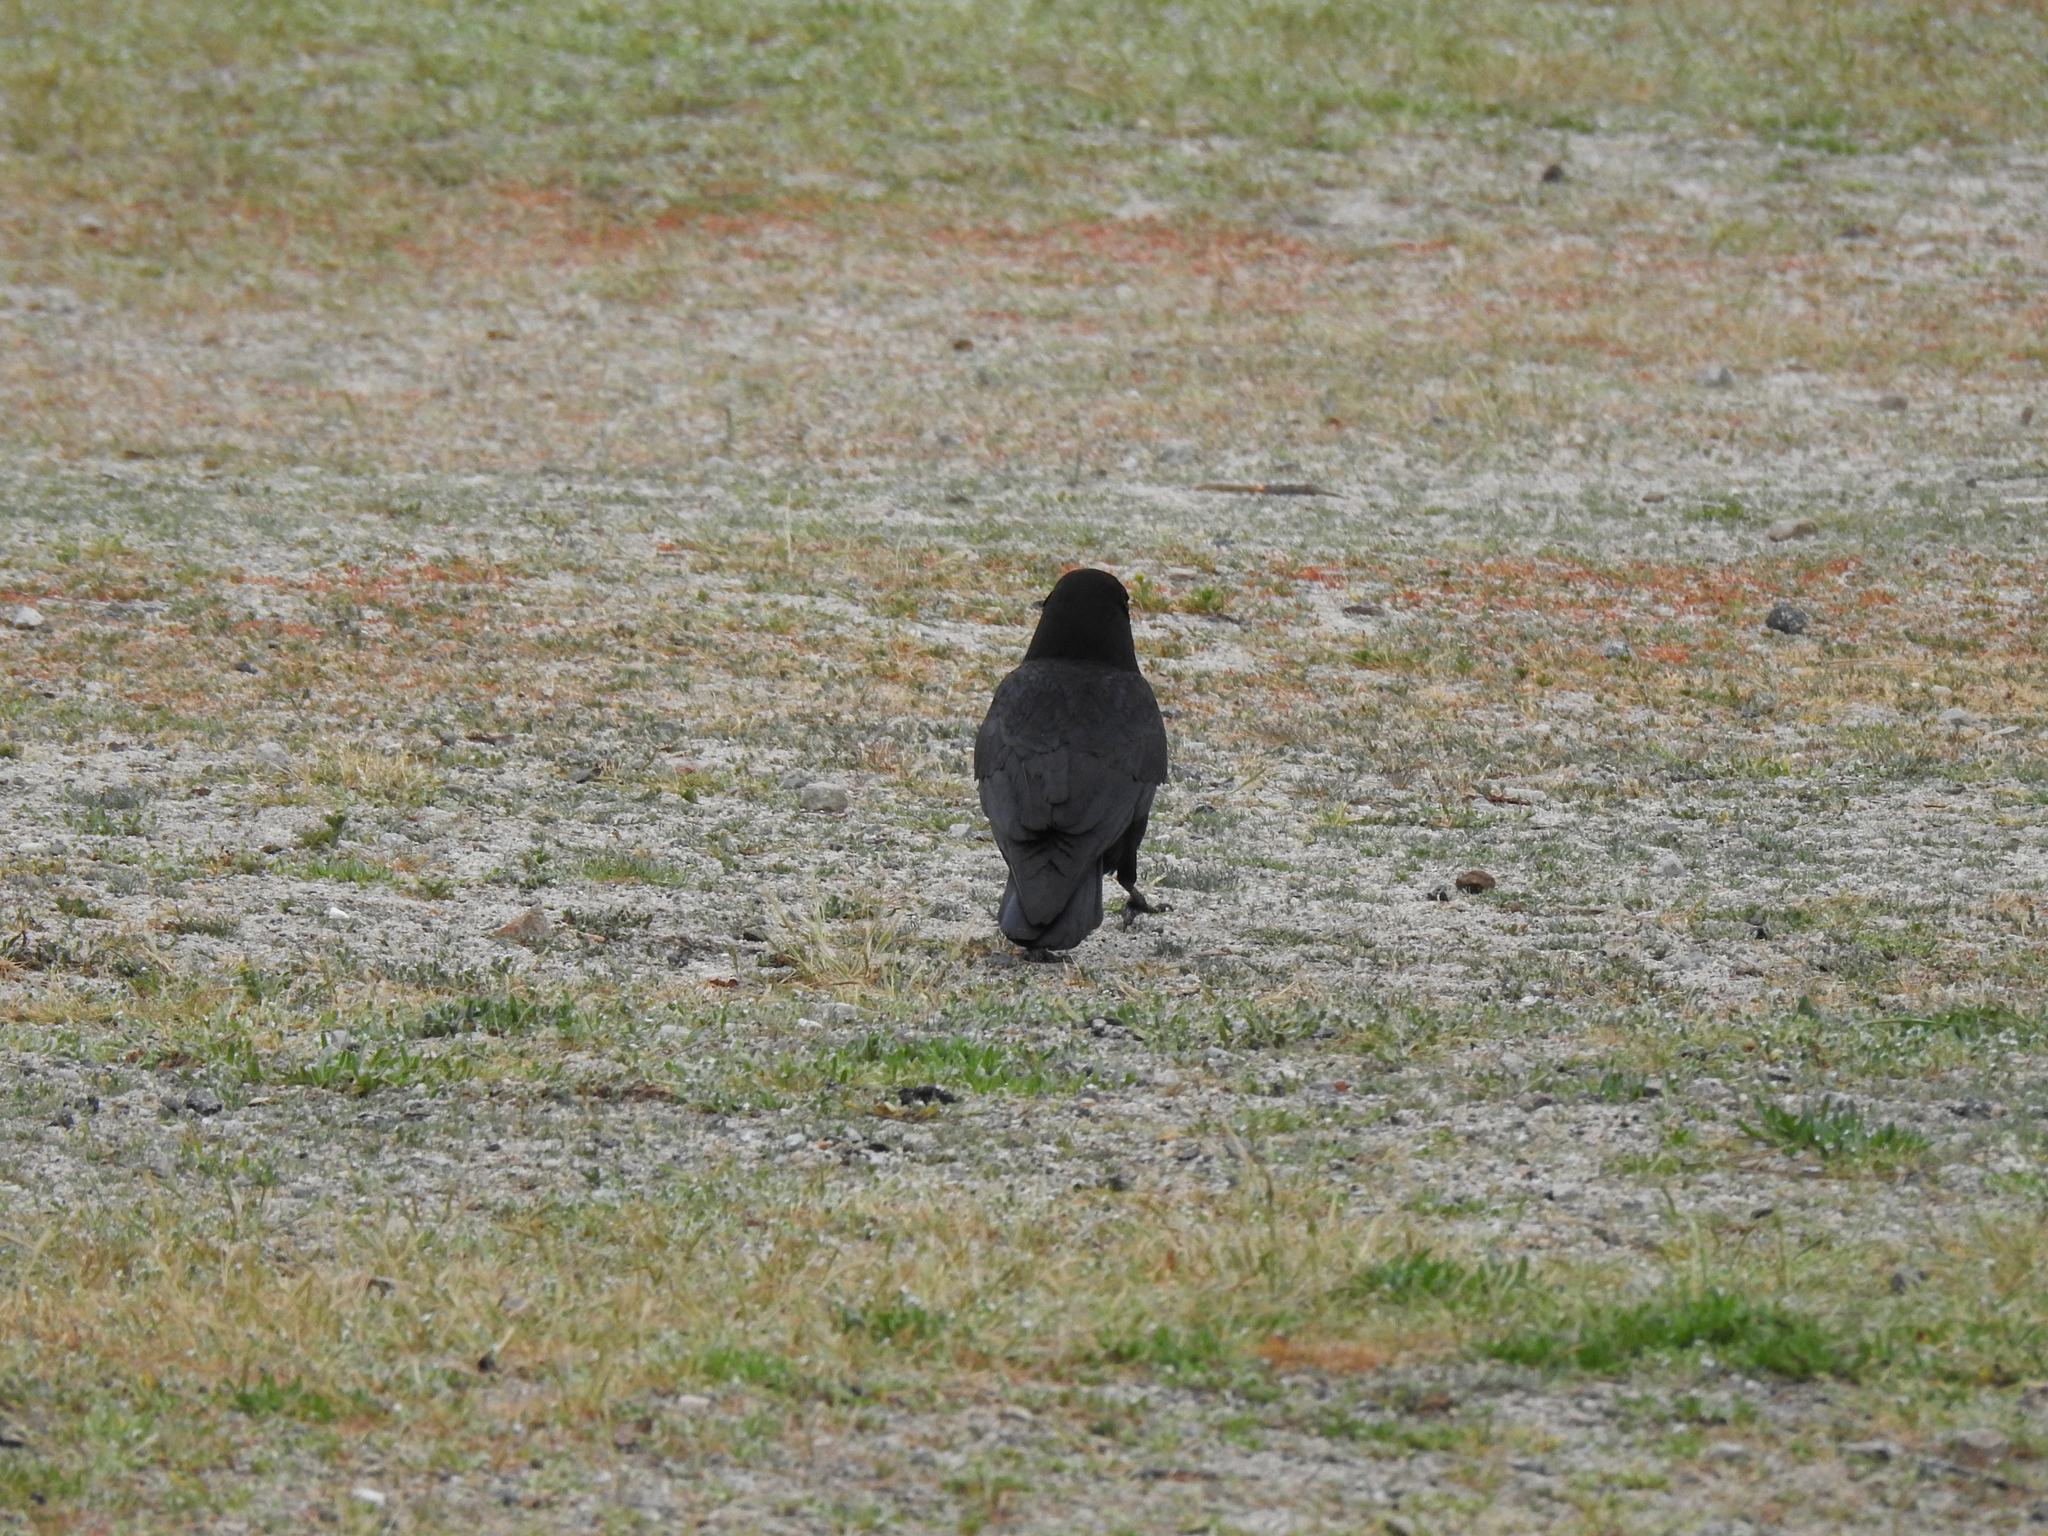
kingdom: Animalia
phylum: Chordata
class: Aves
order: Passeriformes
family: Corvidae
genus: Corvus
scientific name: Corvus brachyrhynchos
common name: American crow
